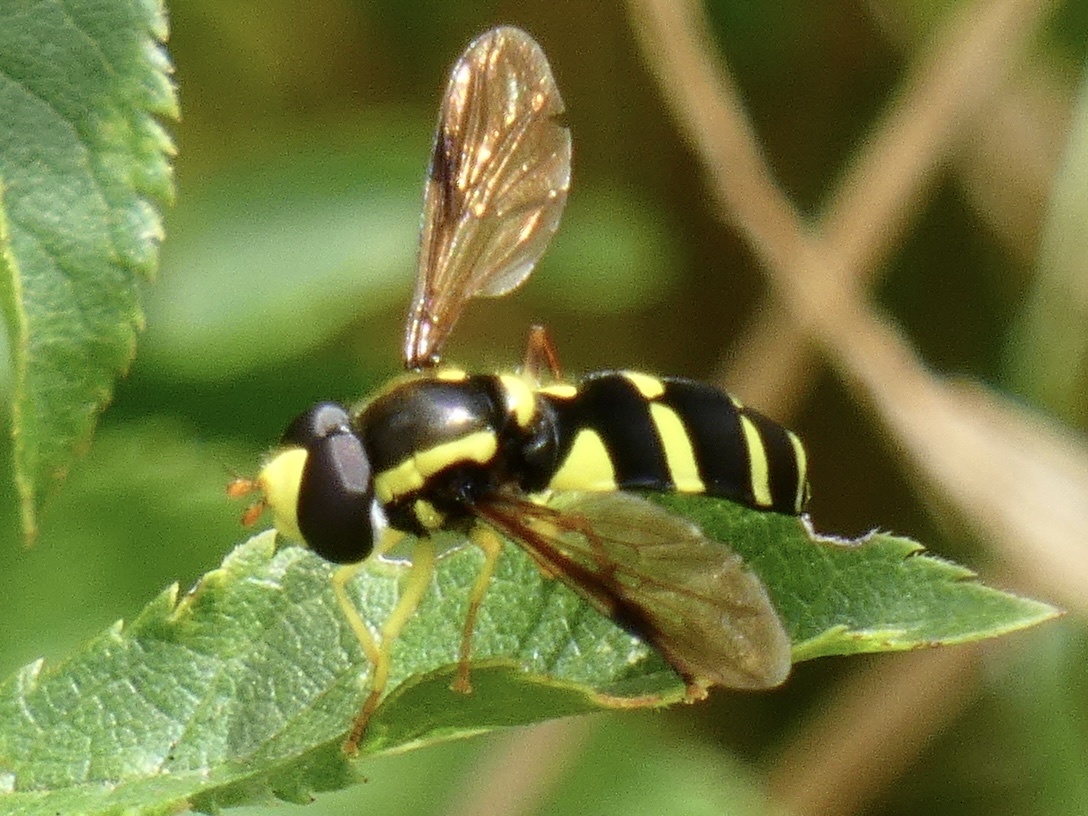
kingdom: Animalia
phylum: Arthropoda
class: Insecta
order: Diptera
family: Syrphidae
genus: Philhelius
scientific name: Philhelius pedissequum
